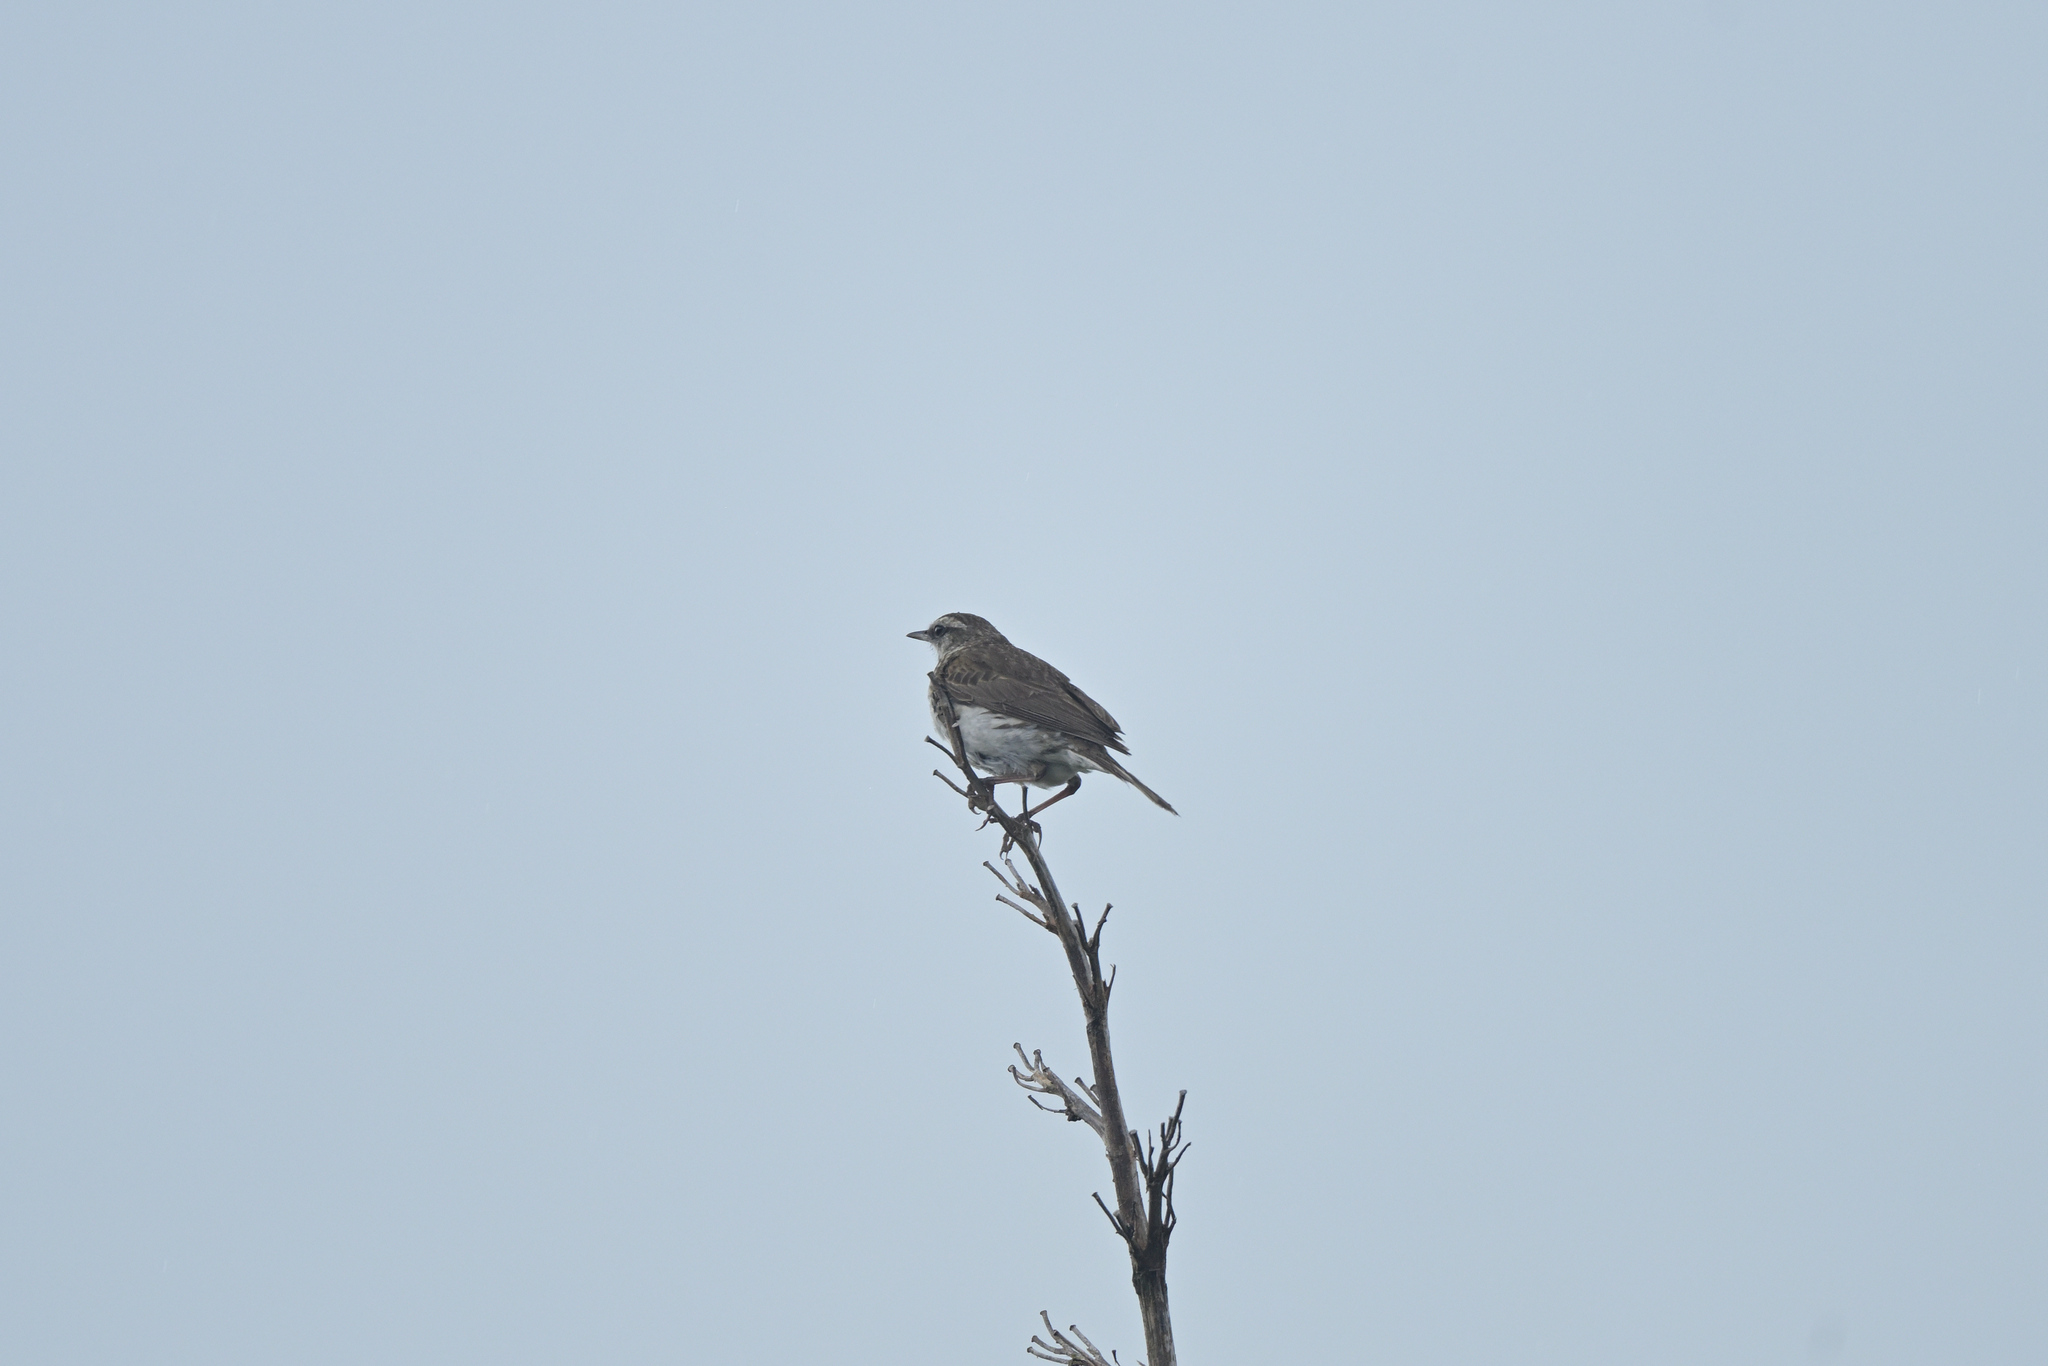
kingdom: Animalia
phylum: Chordata
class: Aves
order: Passeriformes
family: Motacillidae
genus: Anthus
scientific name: Anthus novaeseelandiae
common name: New zealand pipit
